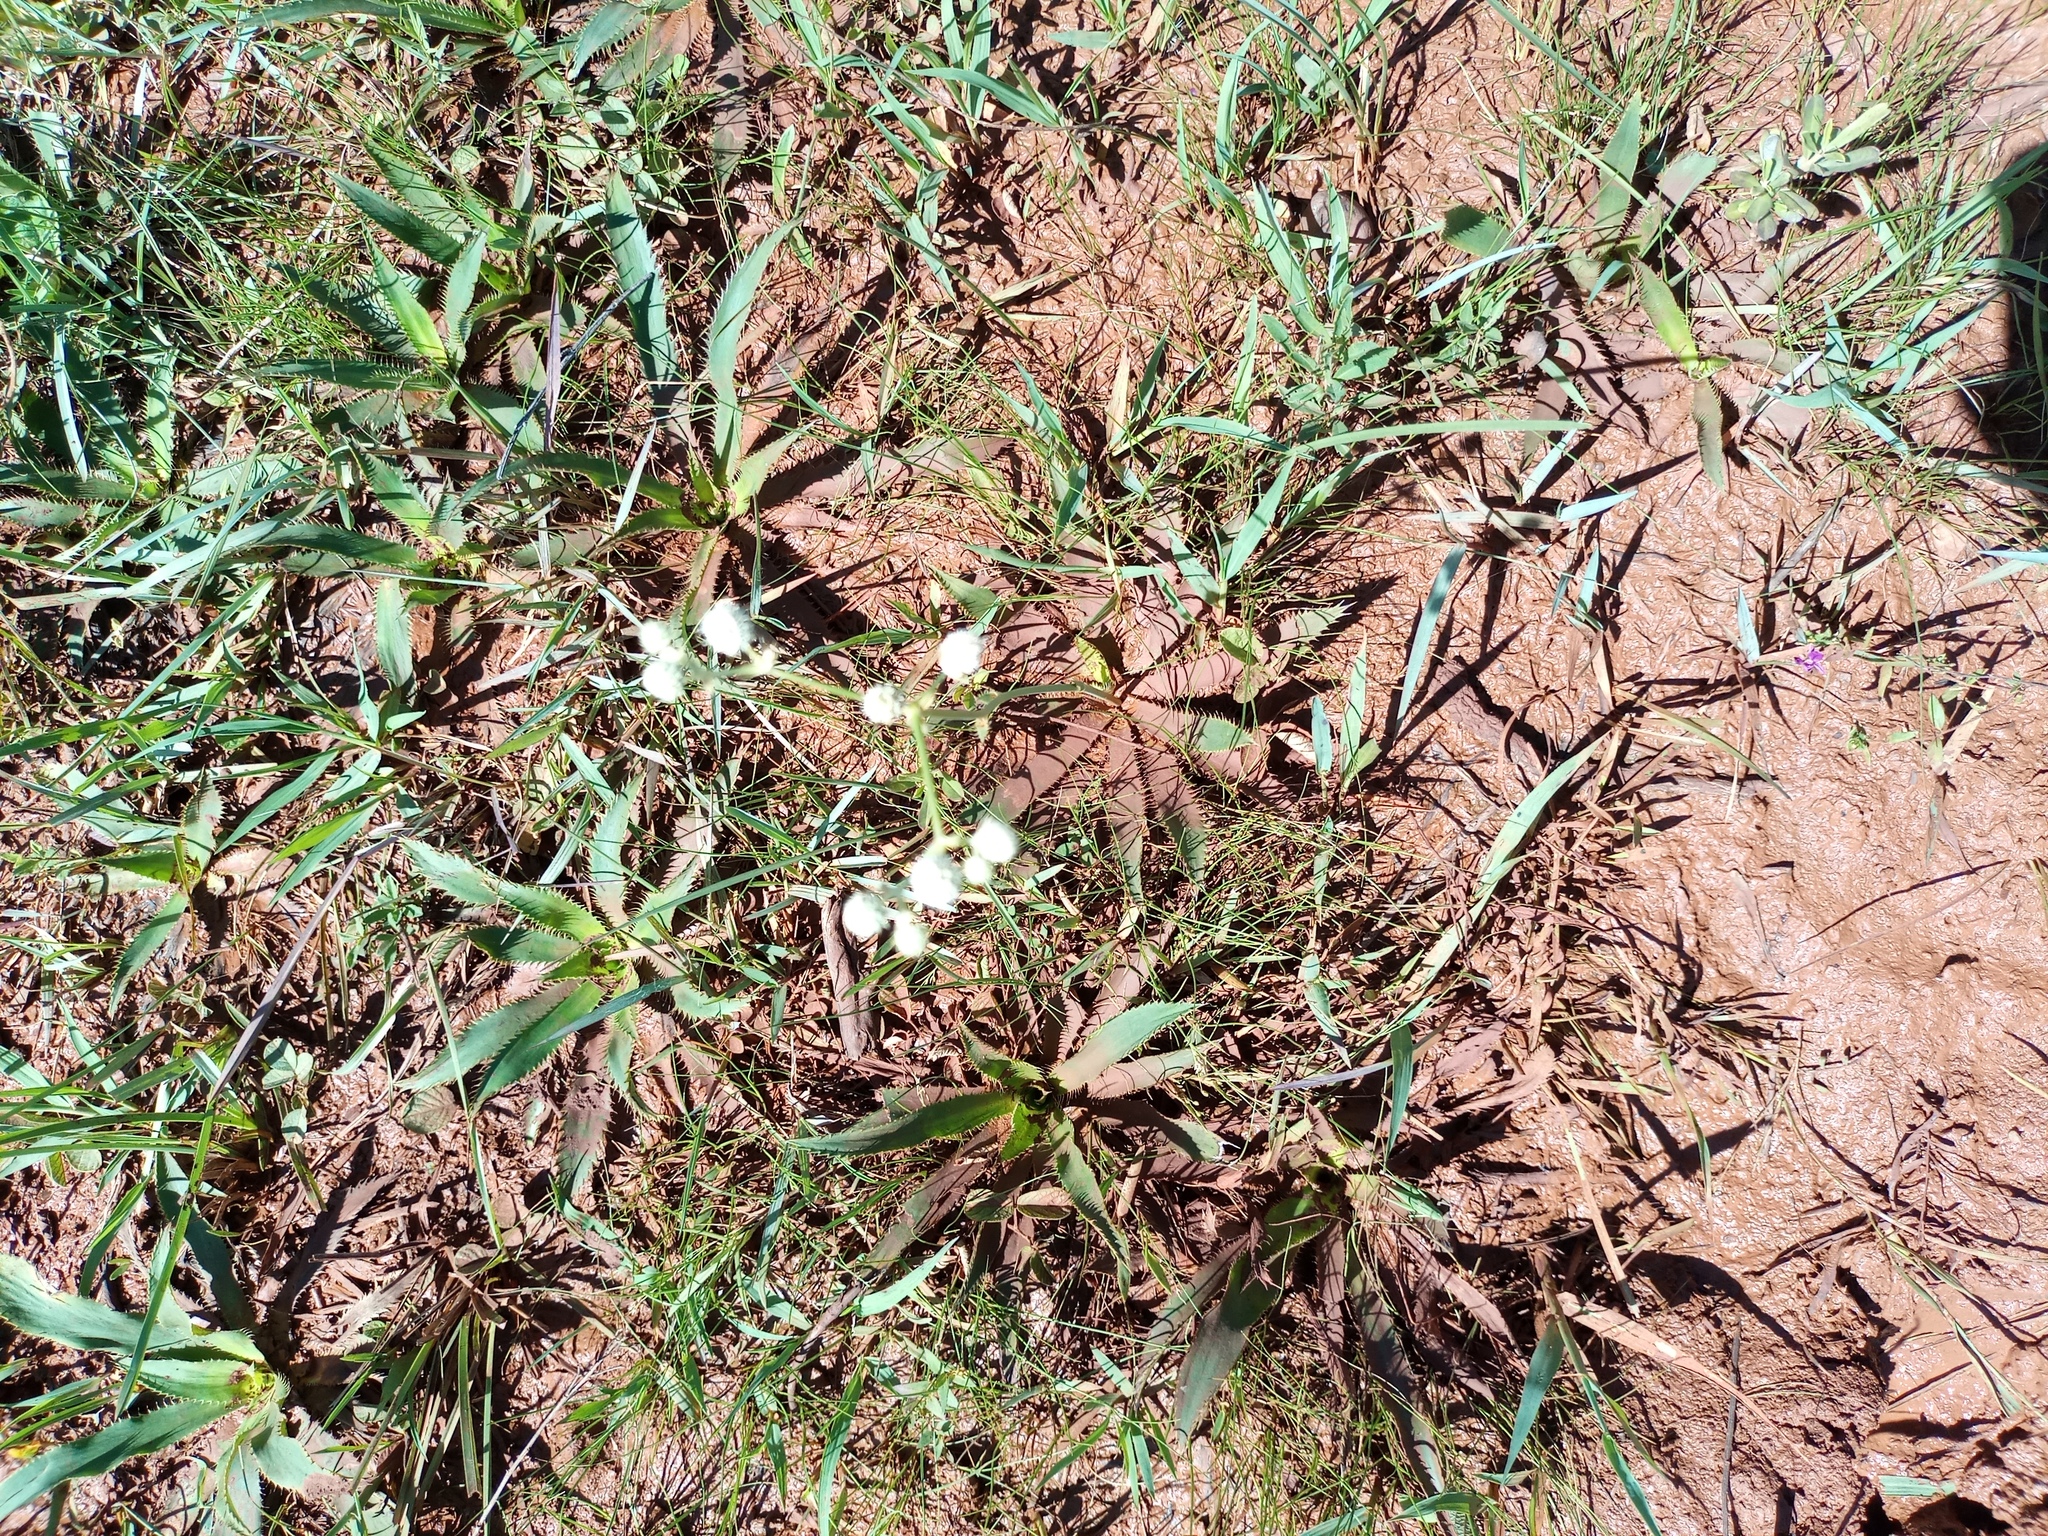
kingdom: Plantae
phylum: Tracheophyta
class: Magnoliopsida
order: Apiales
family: Apiaceae
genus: Eryngium
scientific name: Eryngium elegans
